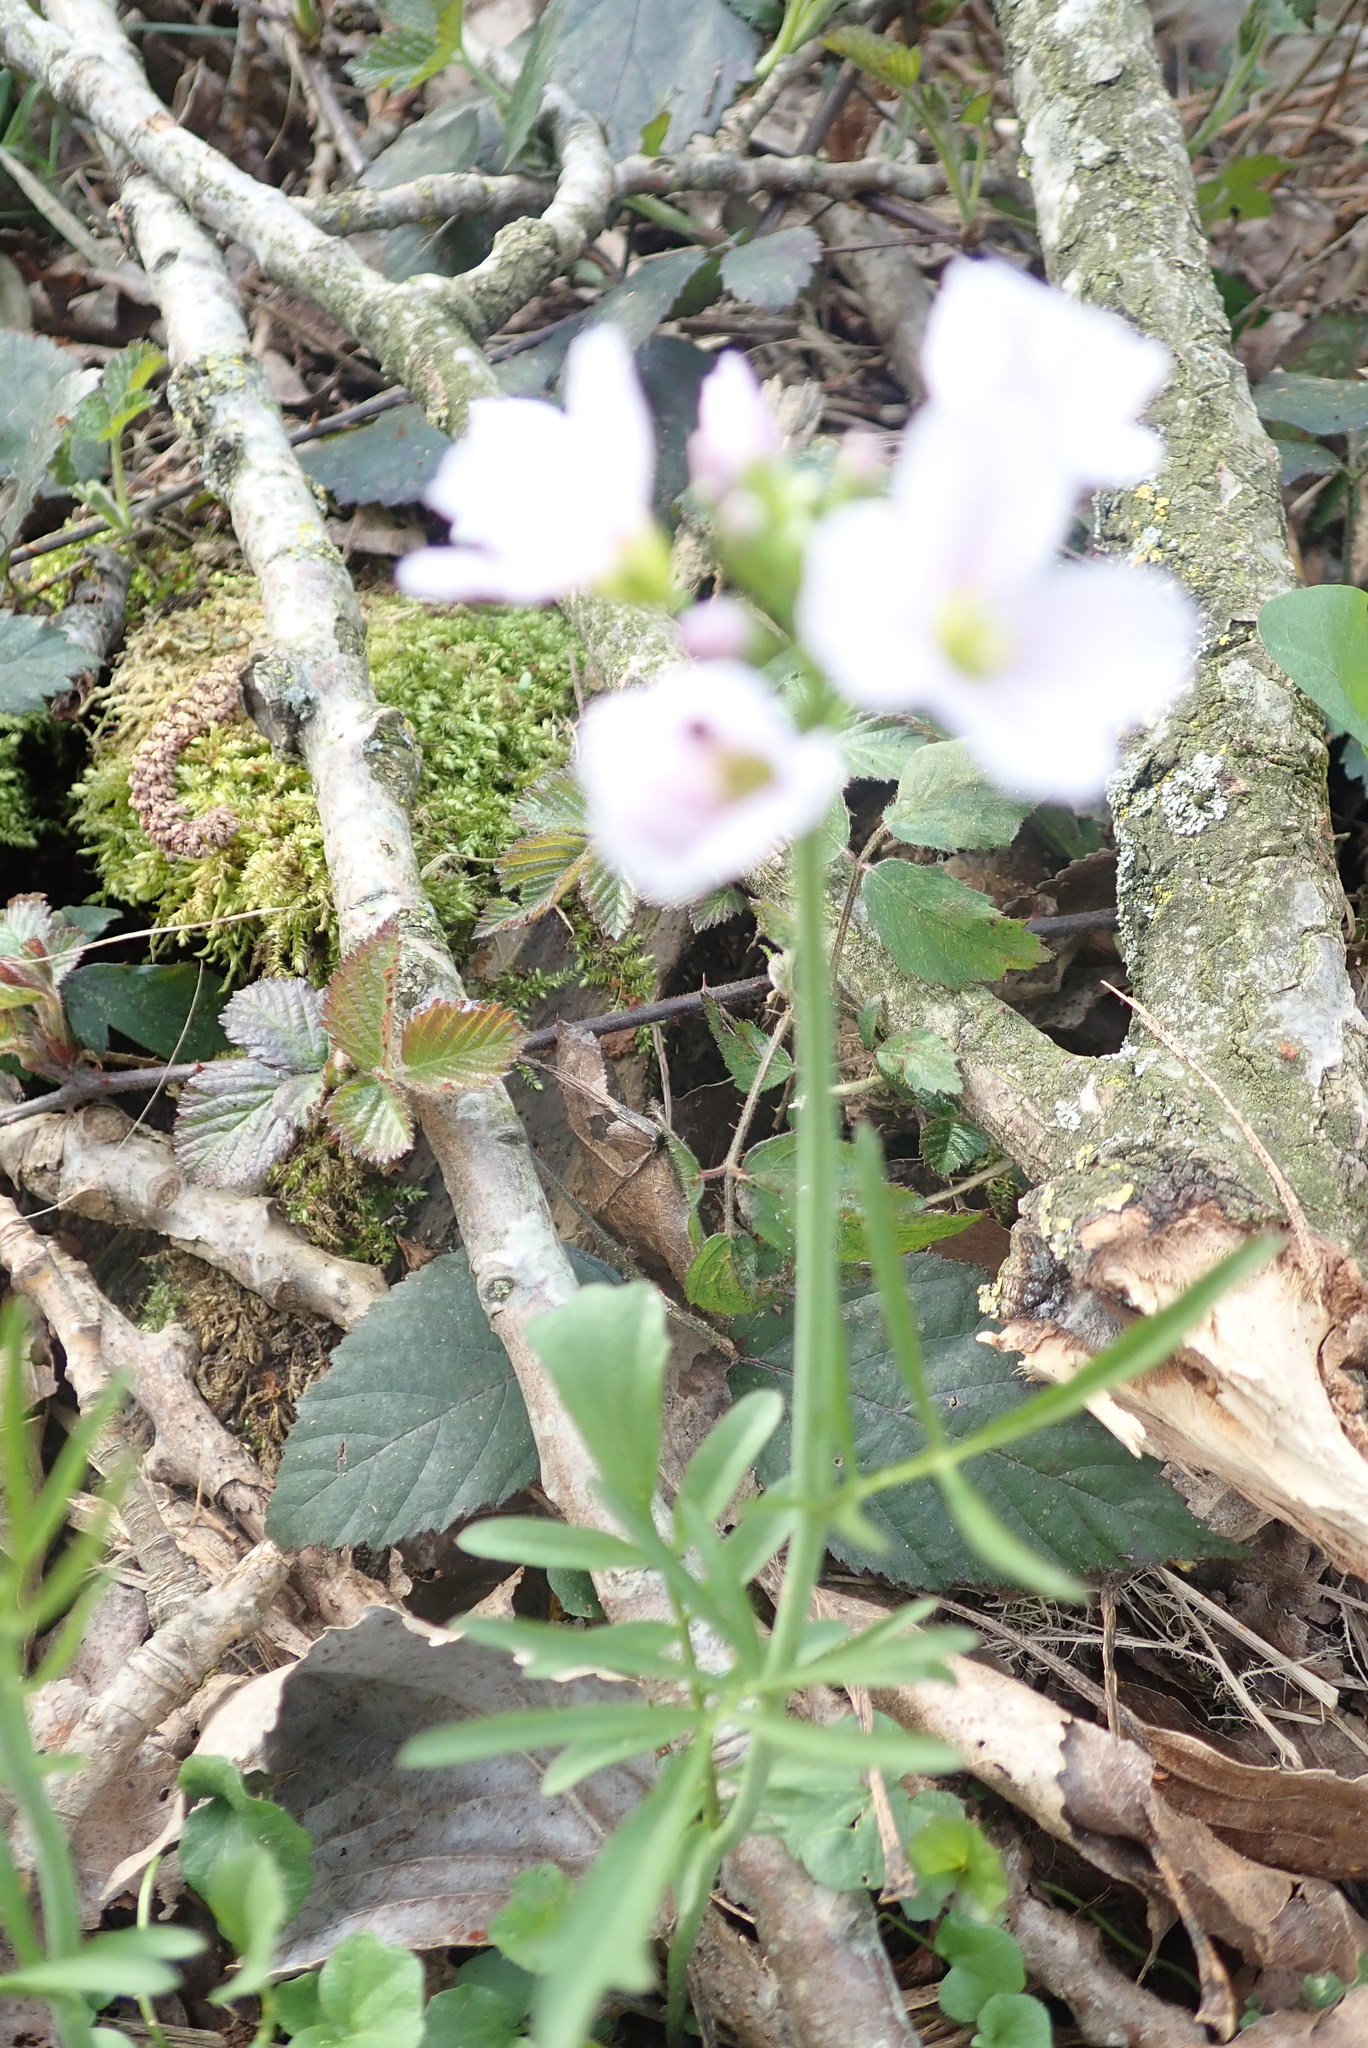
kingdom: Plantae
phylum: Tracheophyta
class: Magnoliopsida
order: Brassicales
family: Brassicaceae
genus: Cardamine
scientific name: Cardamine pratensis
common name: Cuckoo flower
